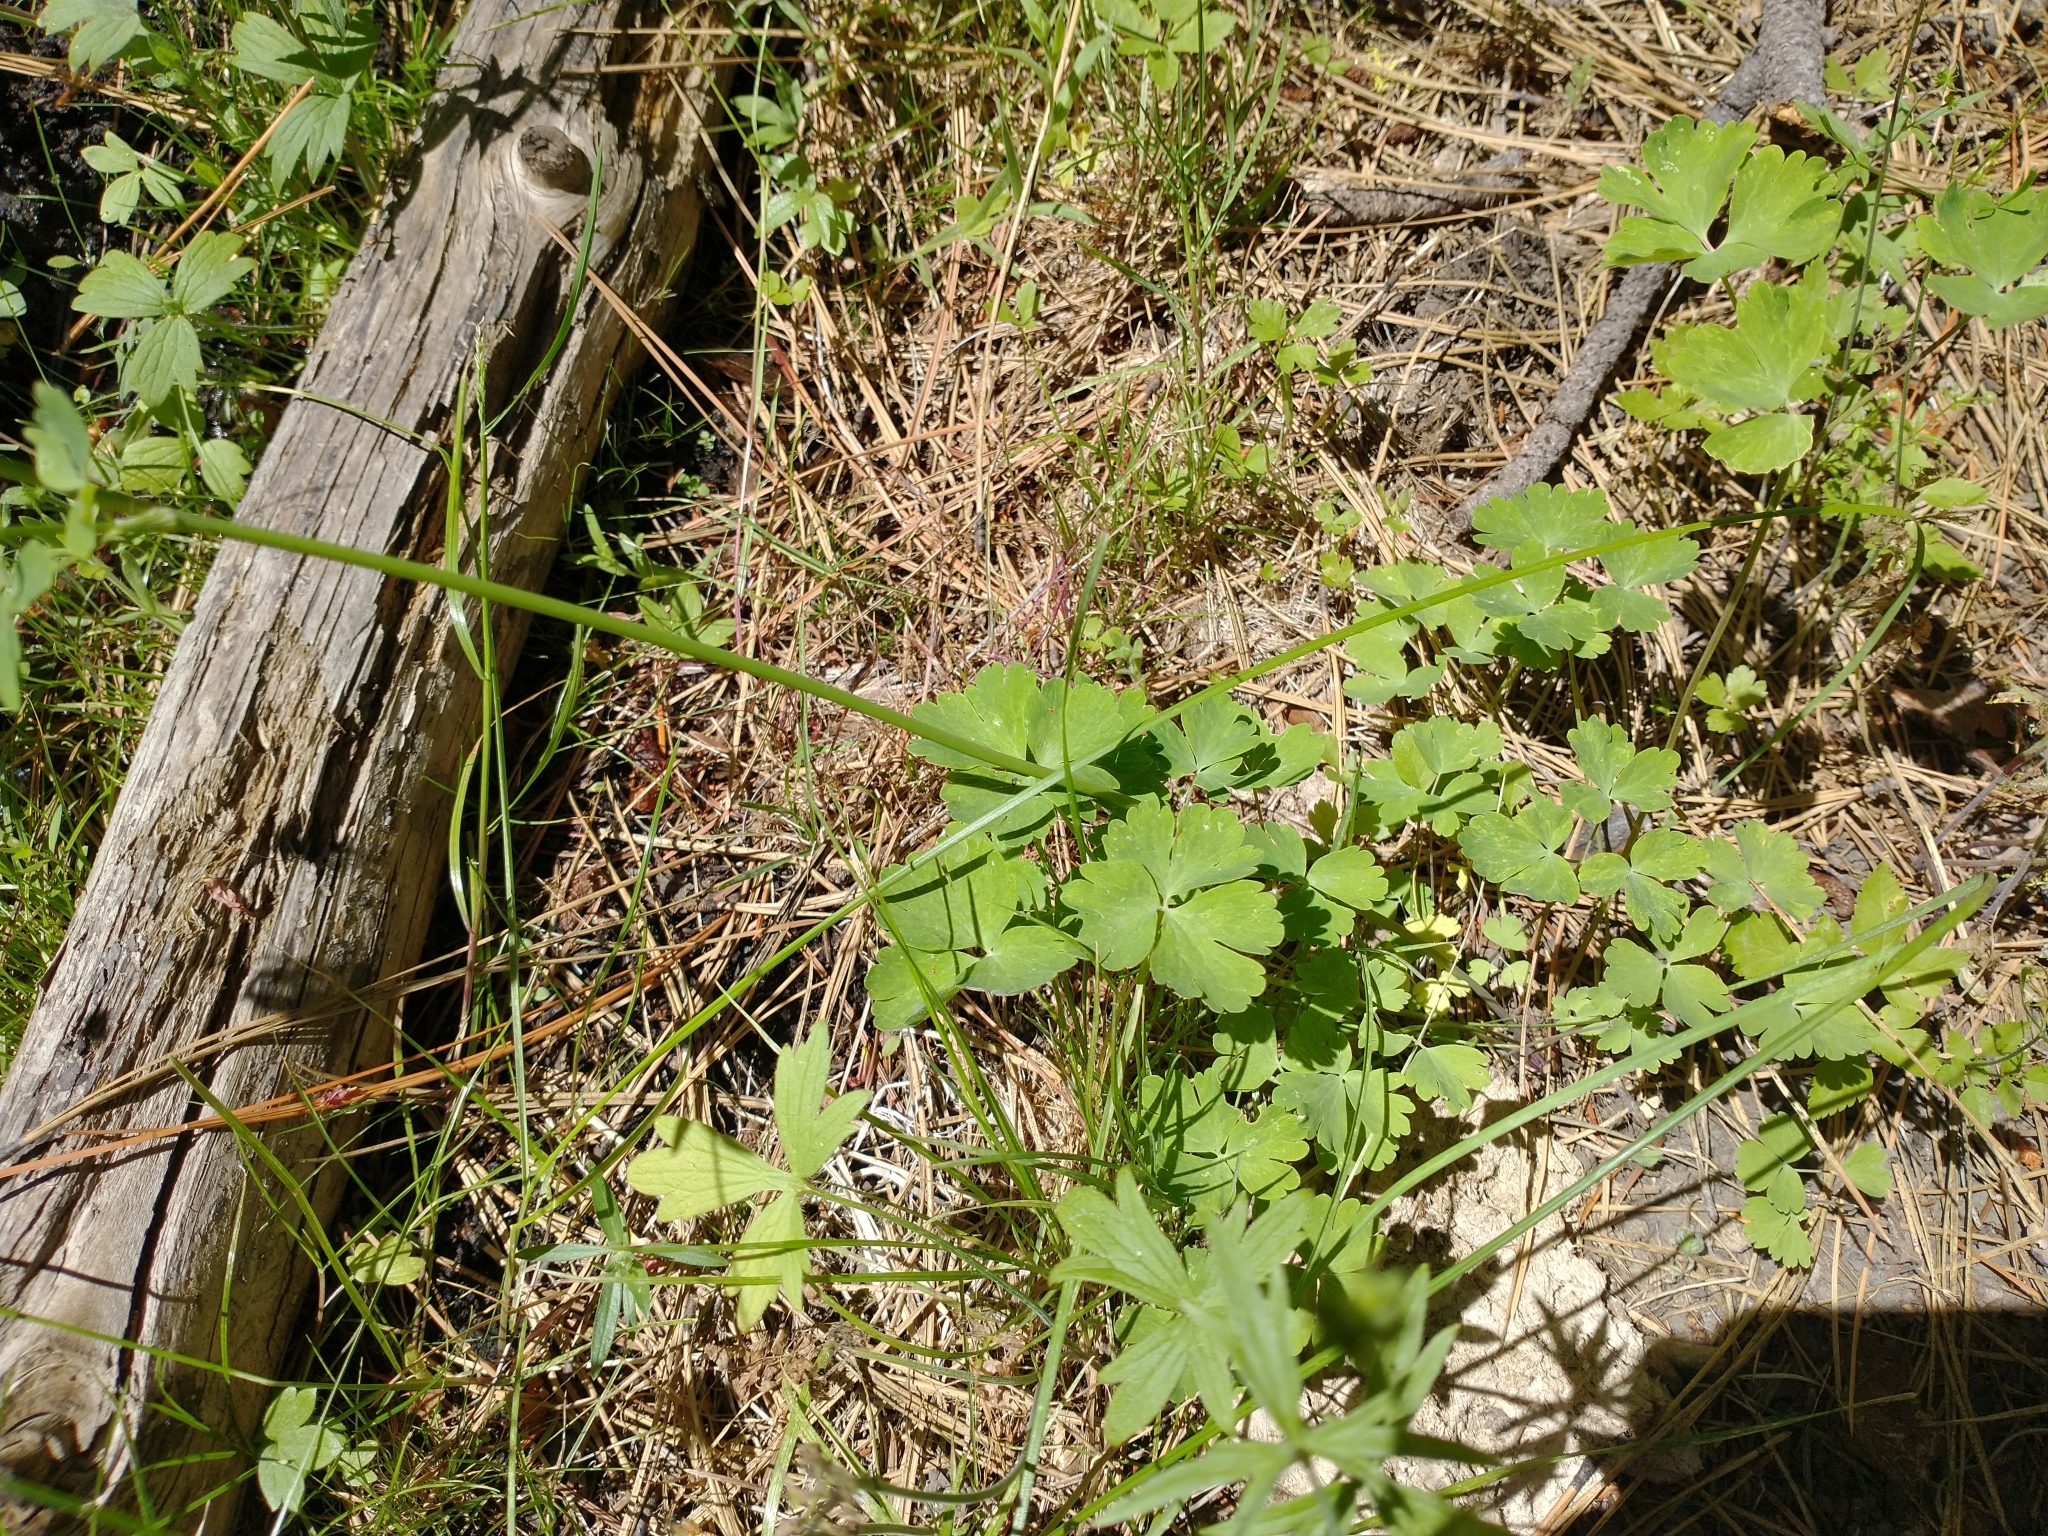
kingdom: Plantae
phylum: Tracheophyta
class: Magnoliopsida
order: Ranunculales
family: Ranunculaceae
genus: Aquilegia
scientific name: Aquilegia formosa
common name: Sitka columbine
